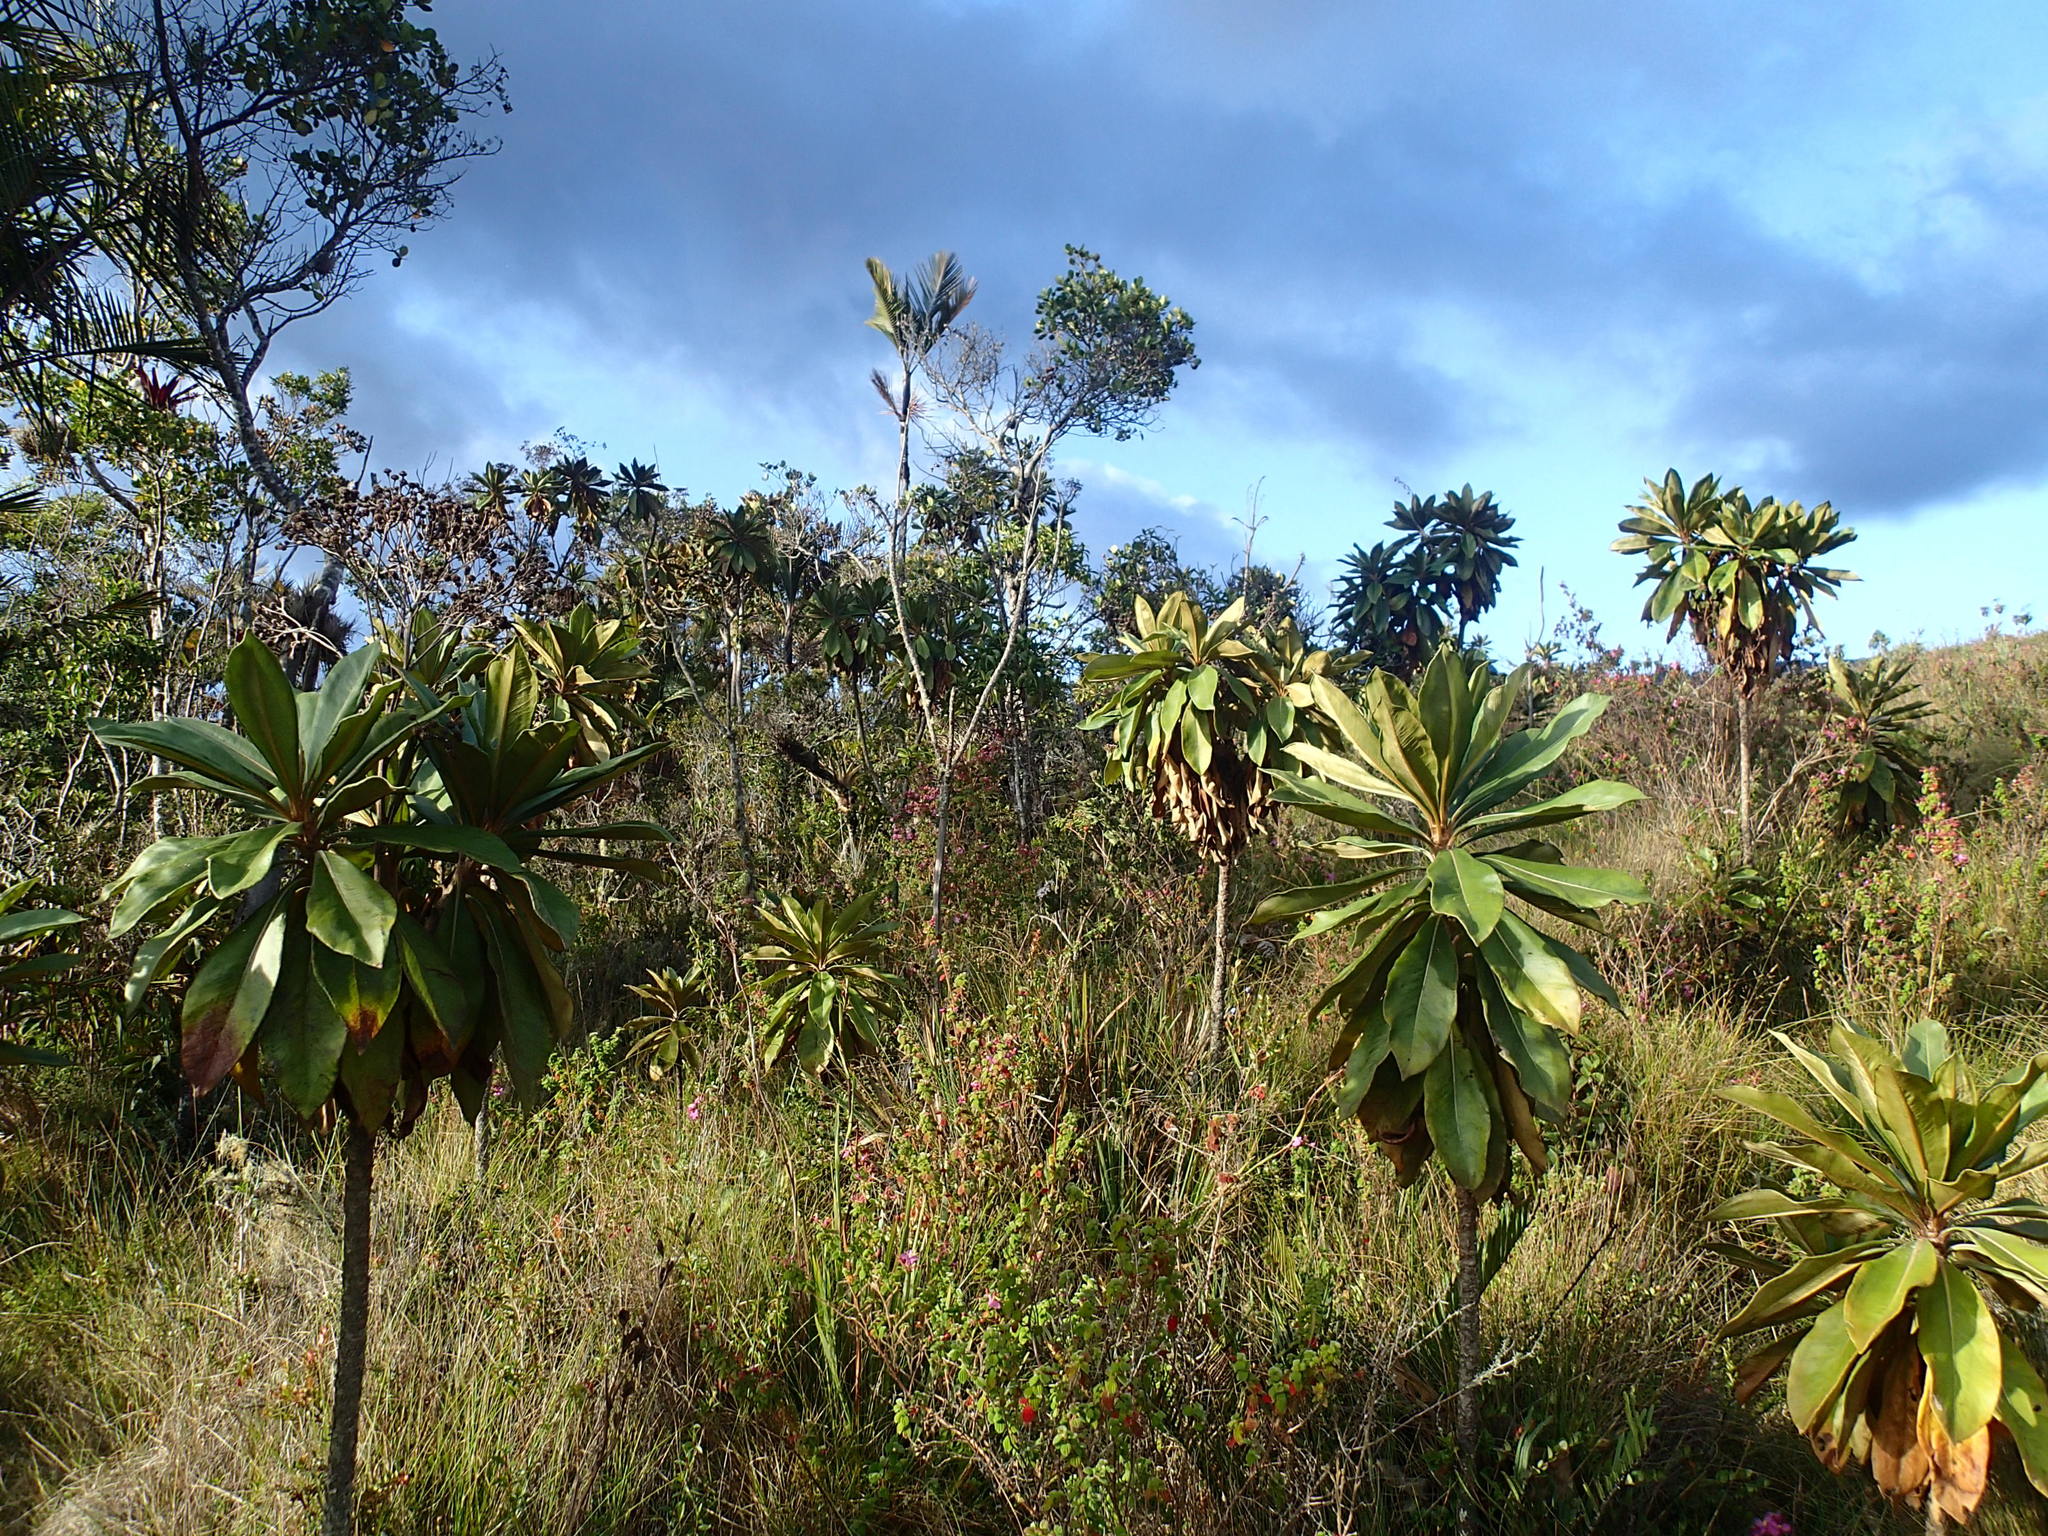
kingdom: Plantae
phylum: Tracheophyta
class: Magnoliopsida
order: Asterales
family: Asteraceae
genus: Espeletia
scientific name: Espeletia chardonii
